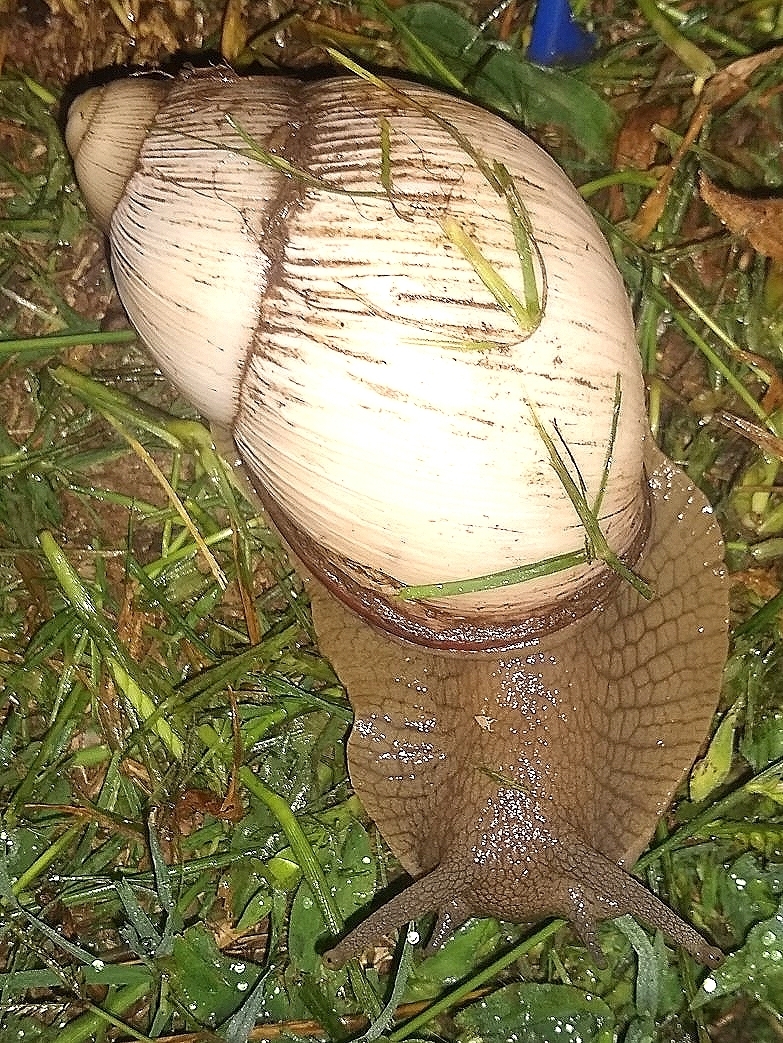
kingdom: Animalia
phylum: Mollusca
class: Gastropoda
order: Stylommatophora
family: Strophocheilidae
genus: Megalobulimus
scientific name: Megalobulimus
